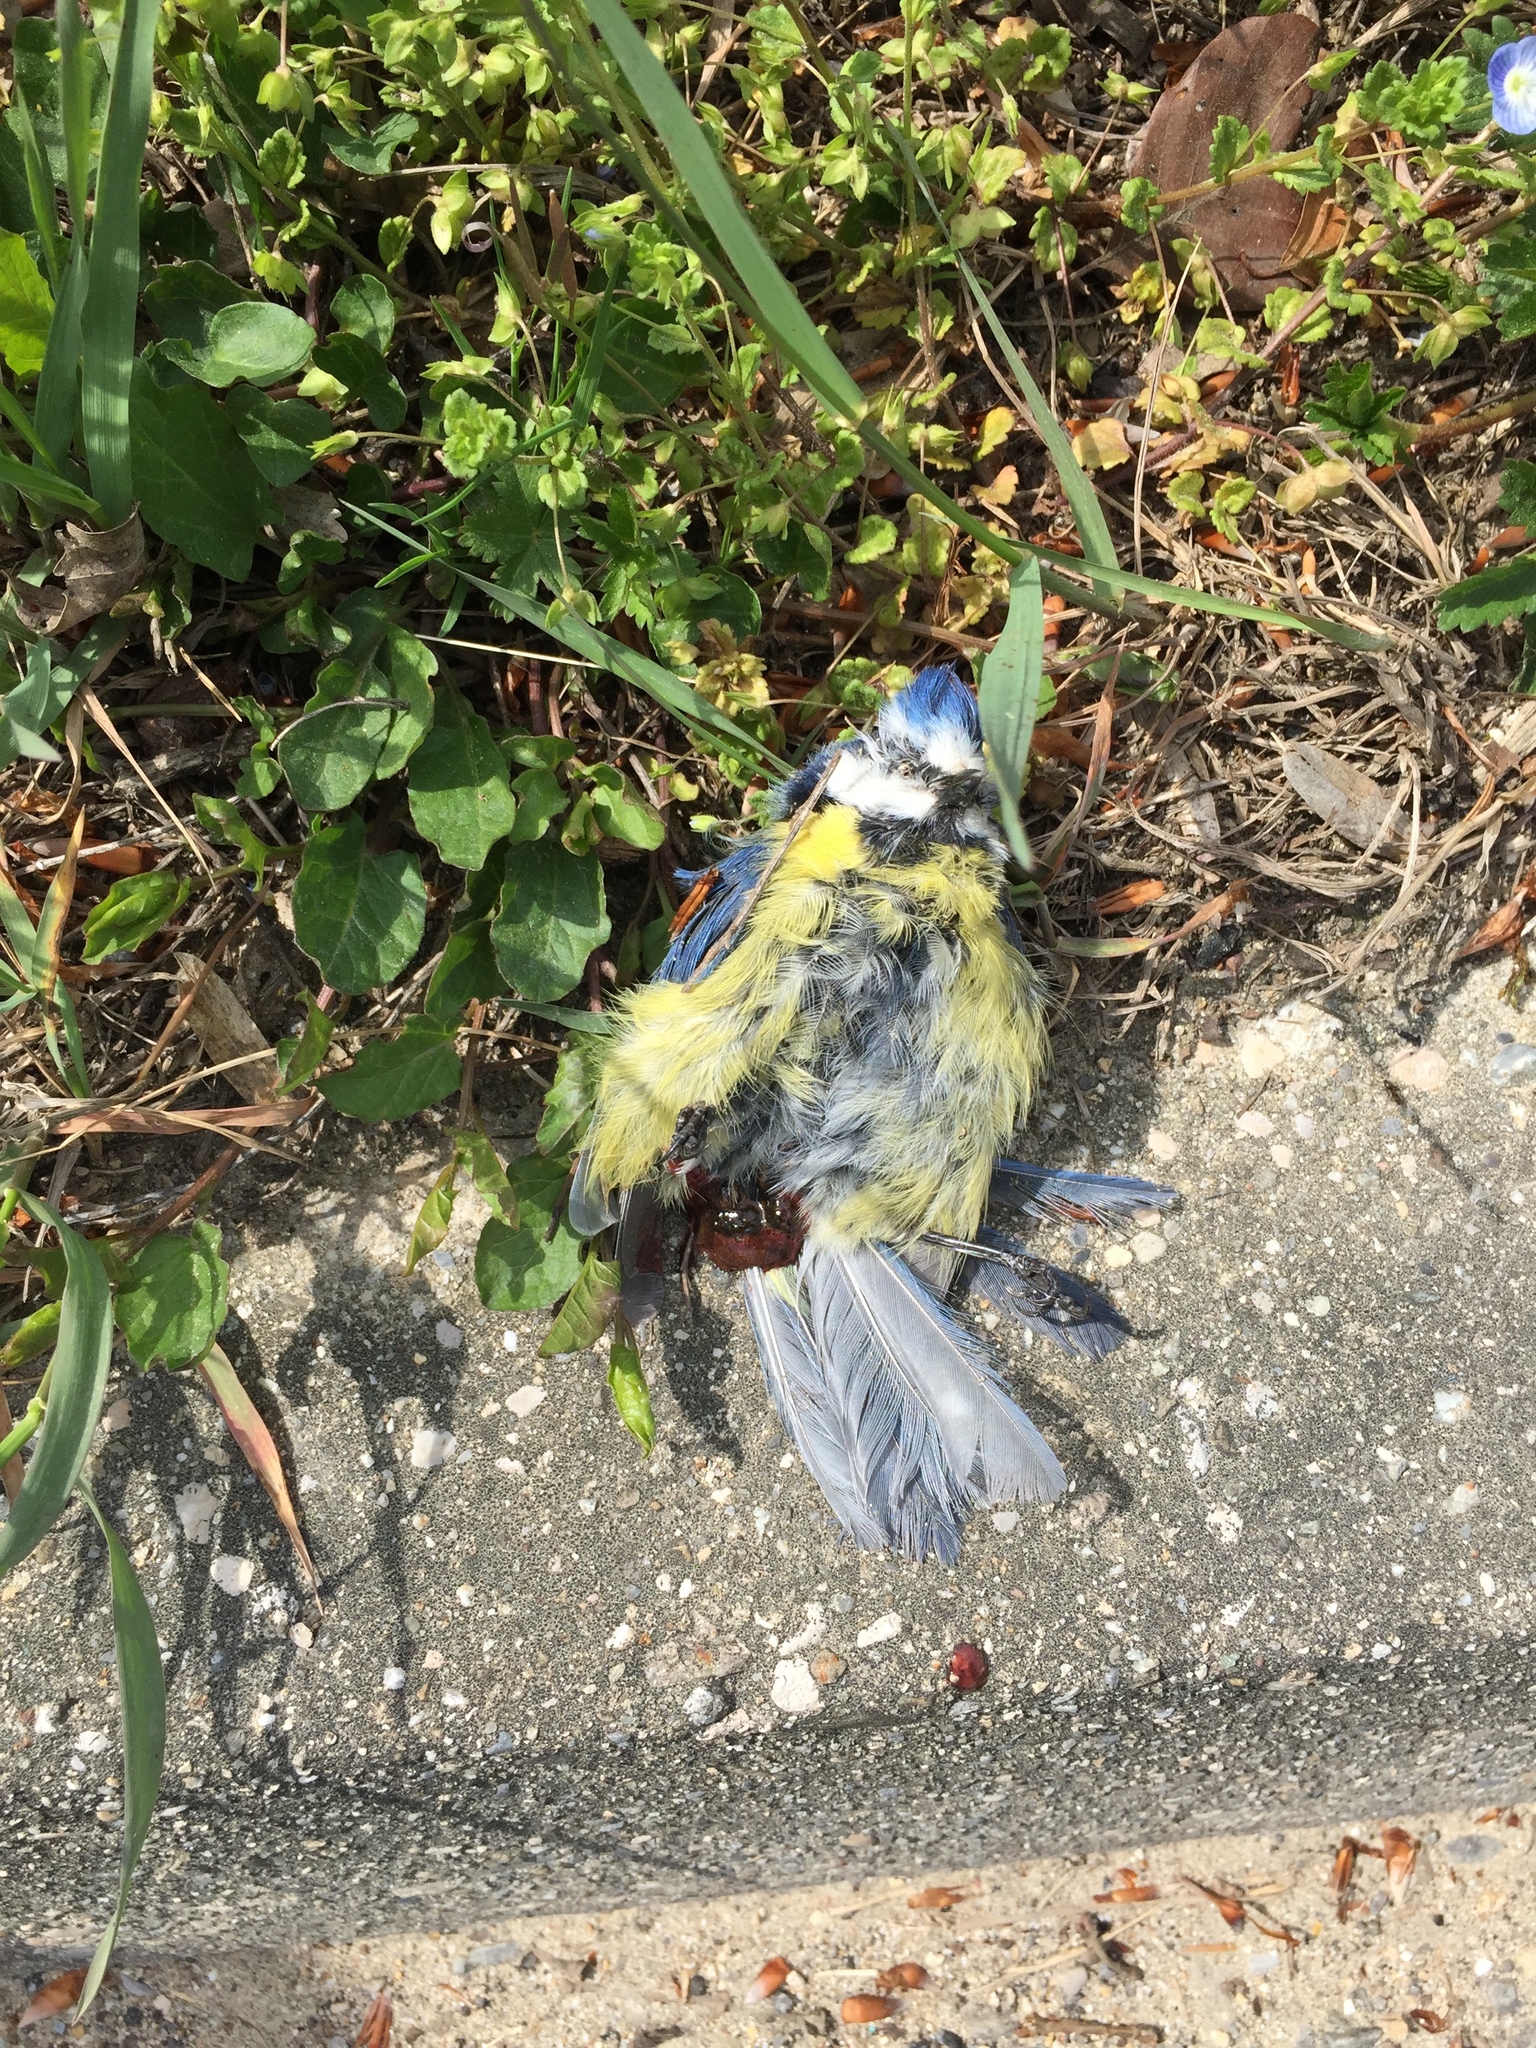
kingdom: Animalia
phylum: Chordata
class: Aves
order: Passeriformes
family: Paridae
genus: Cyanistes
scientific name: Cyanistes caeruleus
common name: Eurasian blue tit
